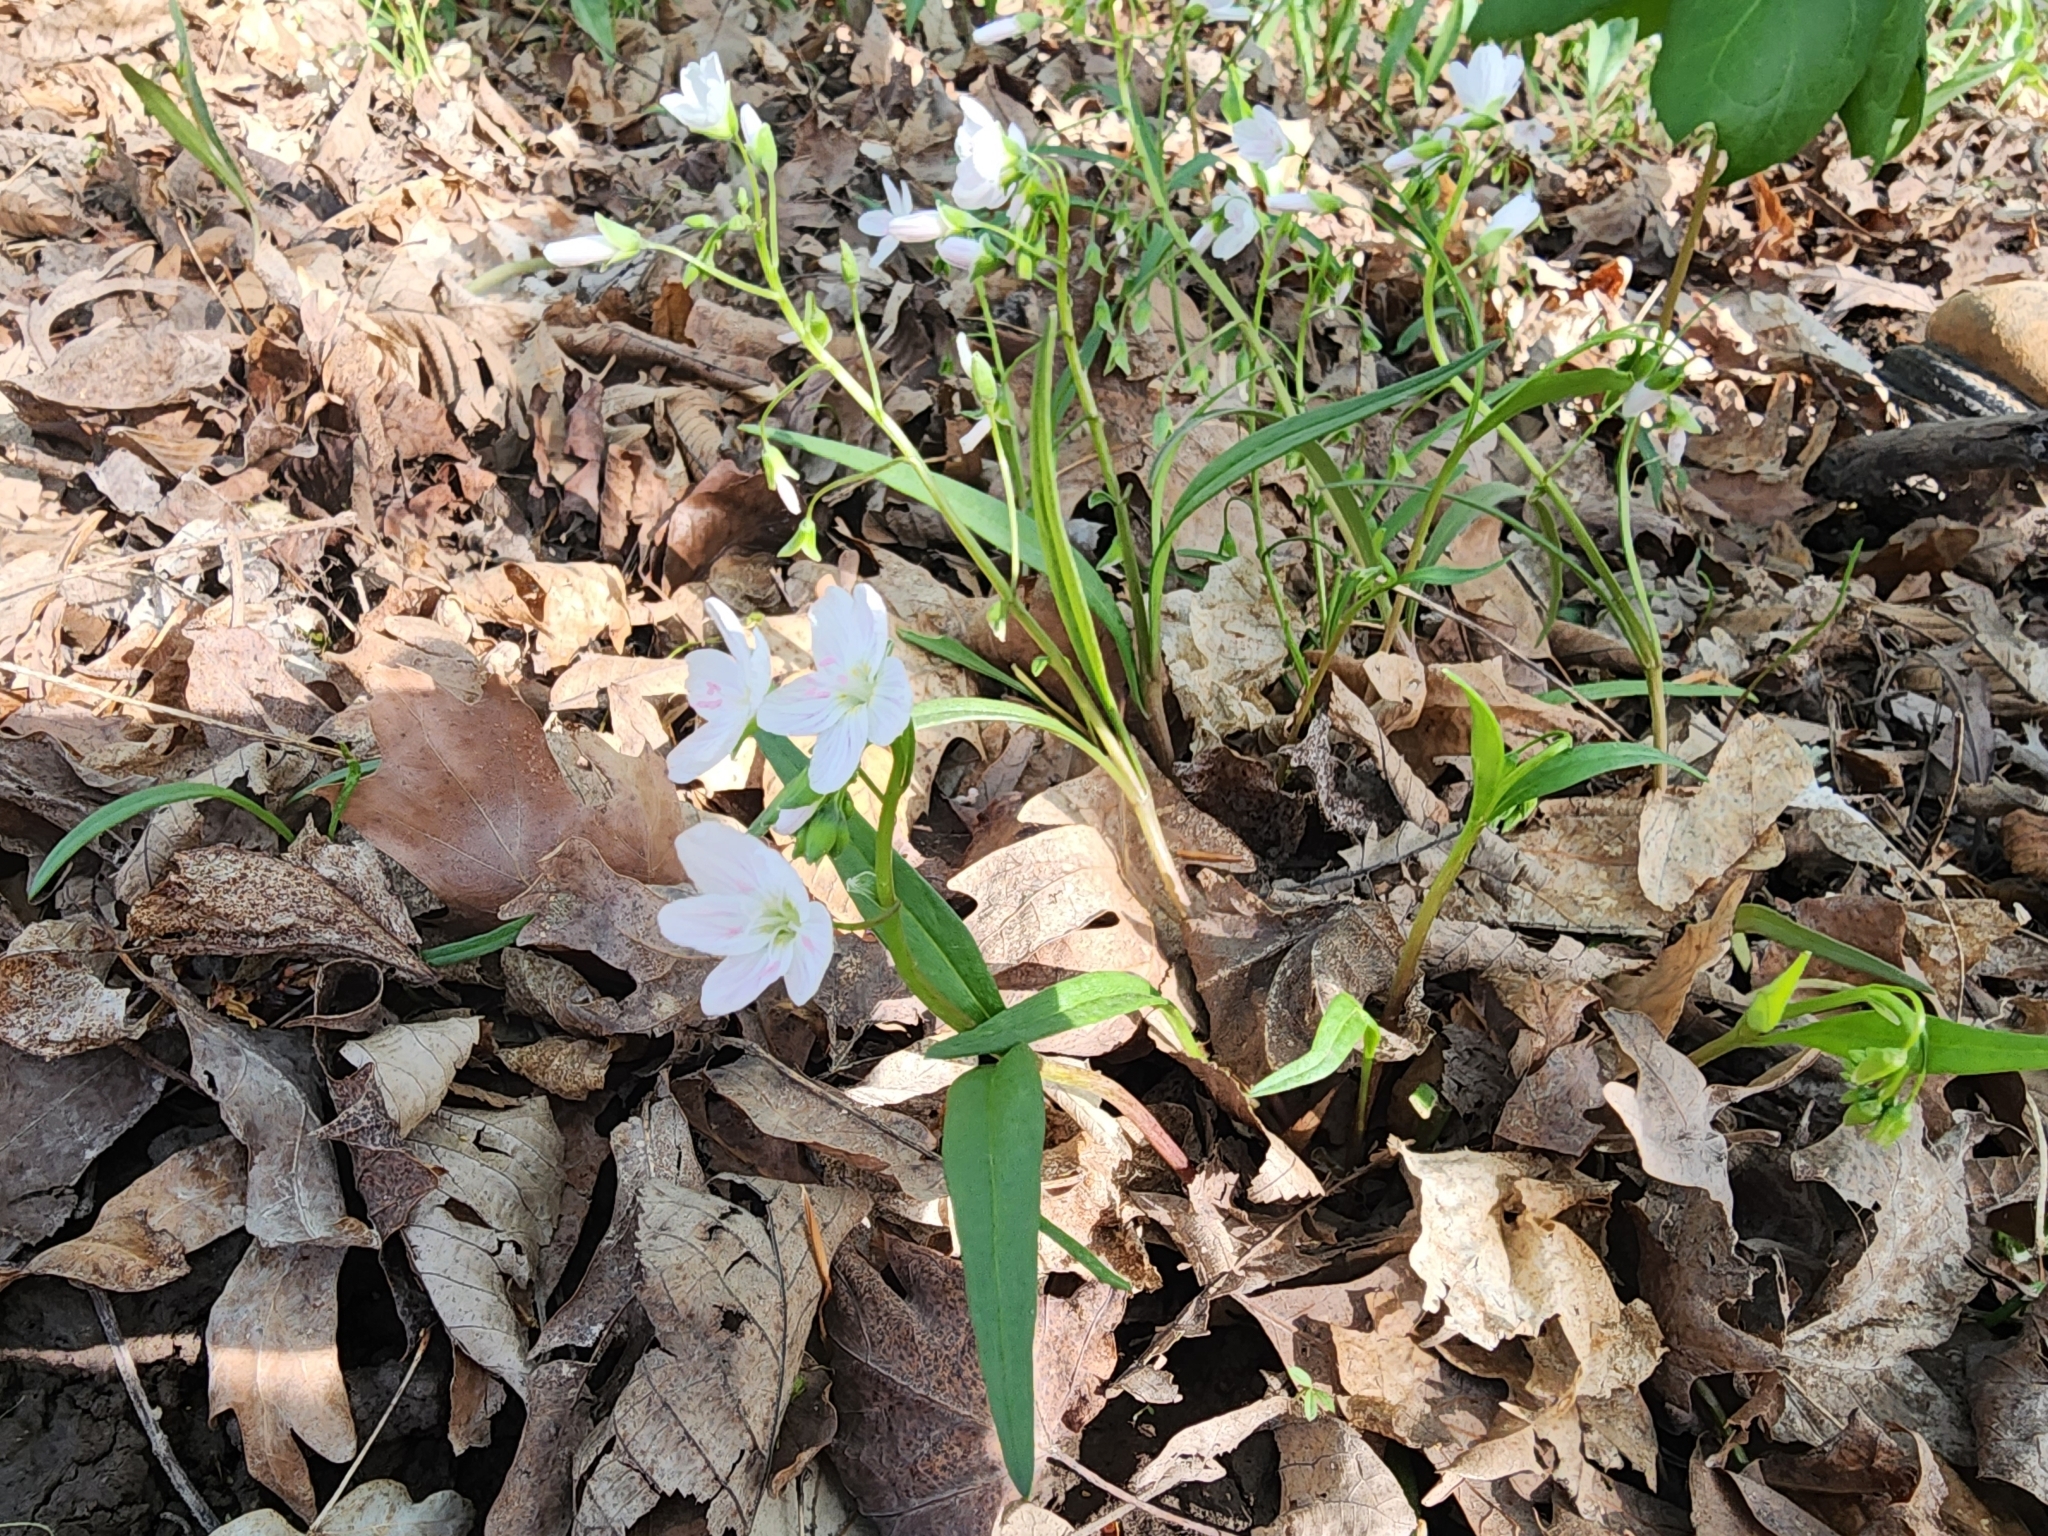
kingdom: Plantae
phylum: Tracheophyta
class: Magnoliopsida
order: Caryophyllales
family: Montiaceae
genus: Claytonia
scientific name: Claytonia virginica
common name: Virginia springbeauty
